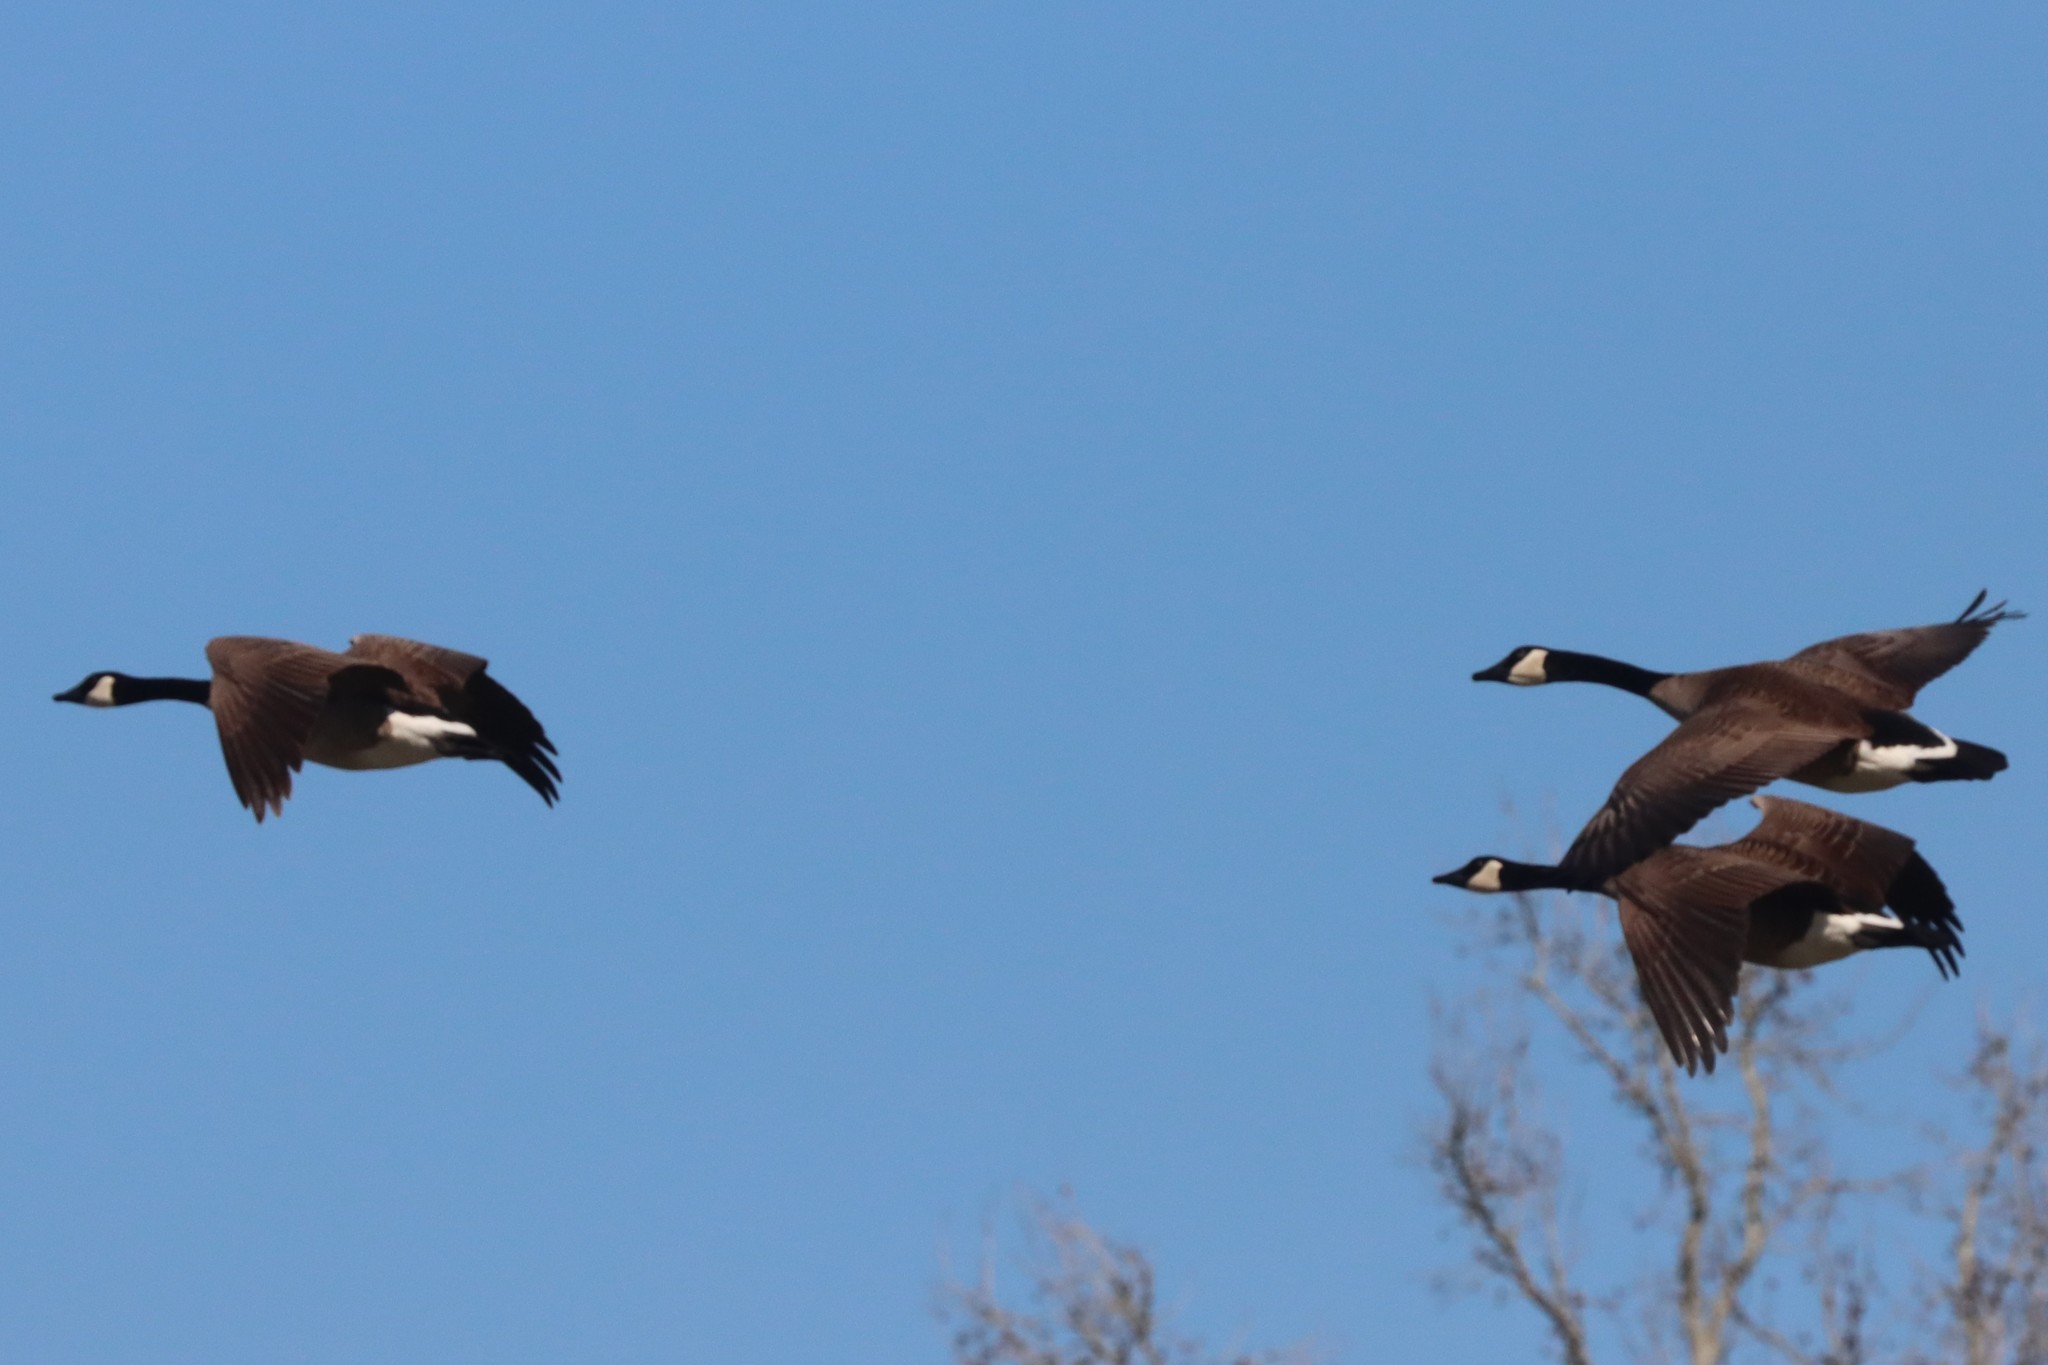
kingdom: Animalia
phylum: Chordata
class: Aves
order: Anseriformes
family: Anatidae
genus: Branta
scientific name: Branta canadensis
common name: Canada goose
